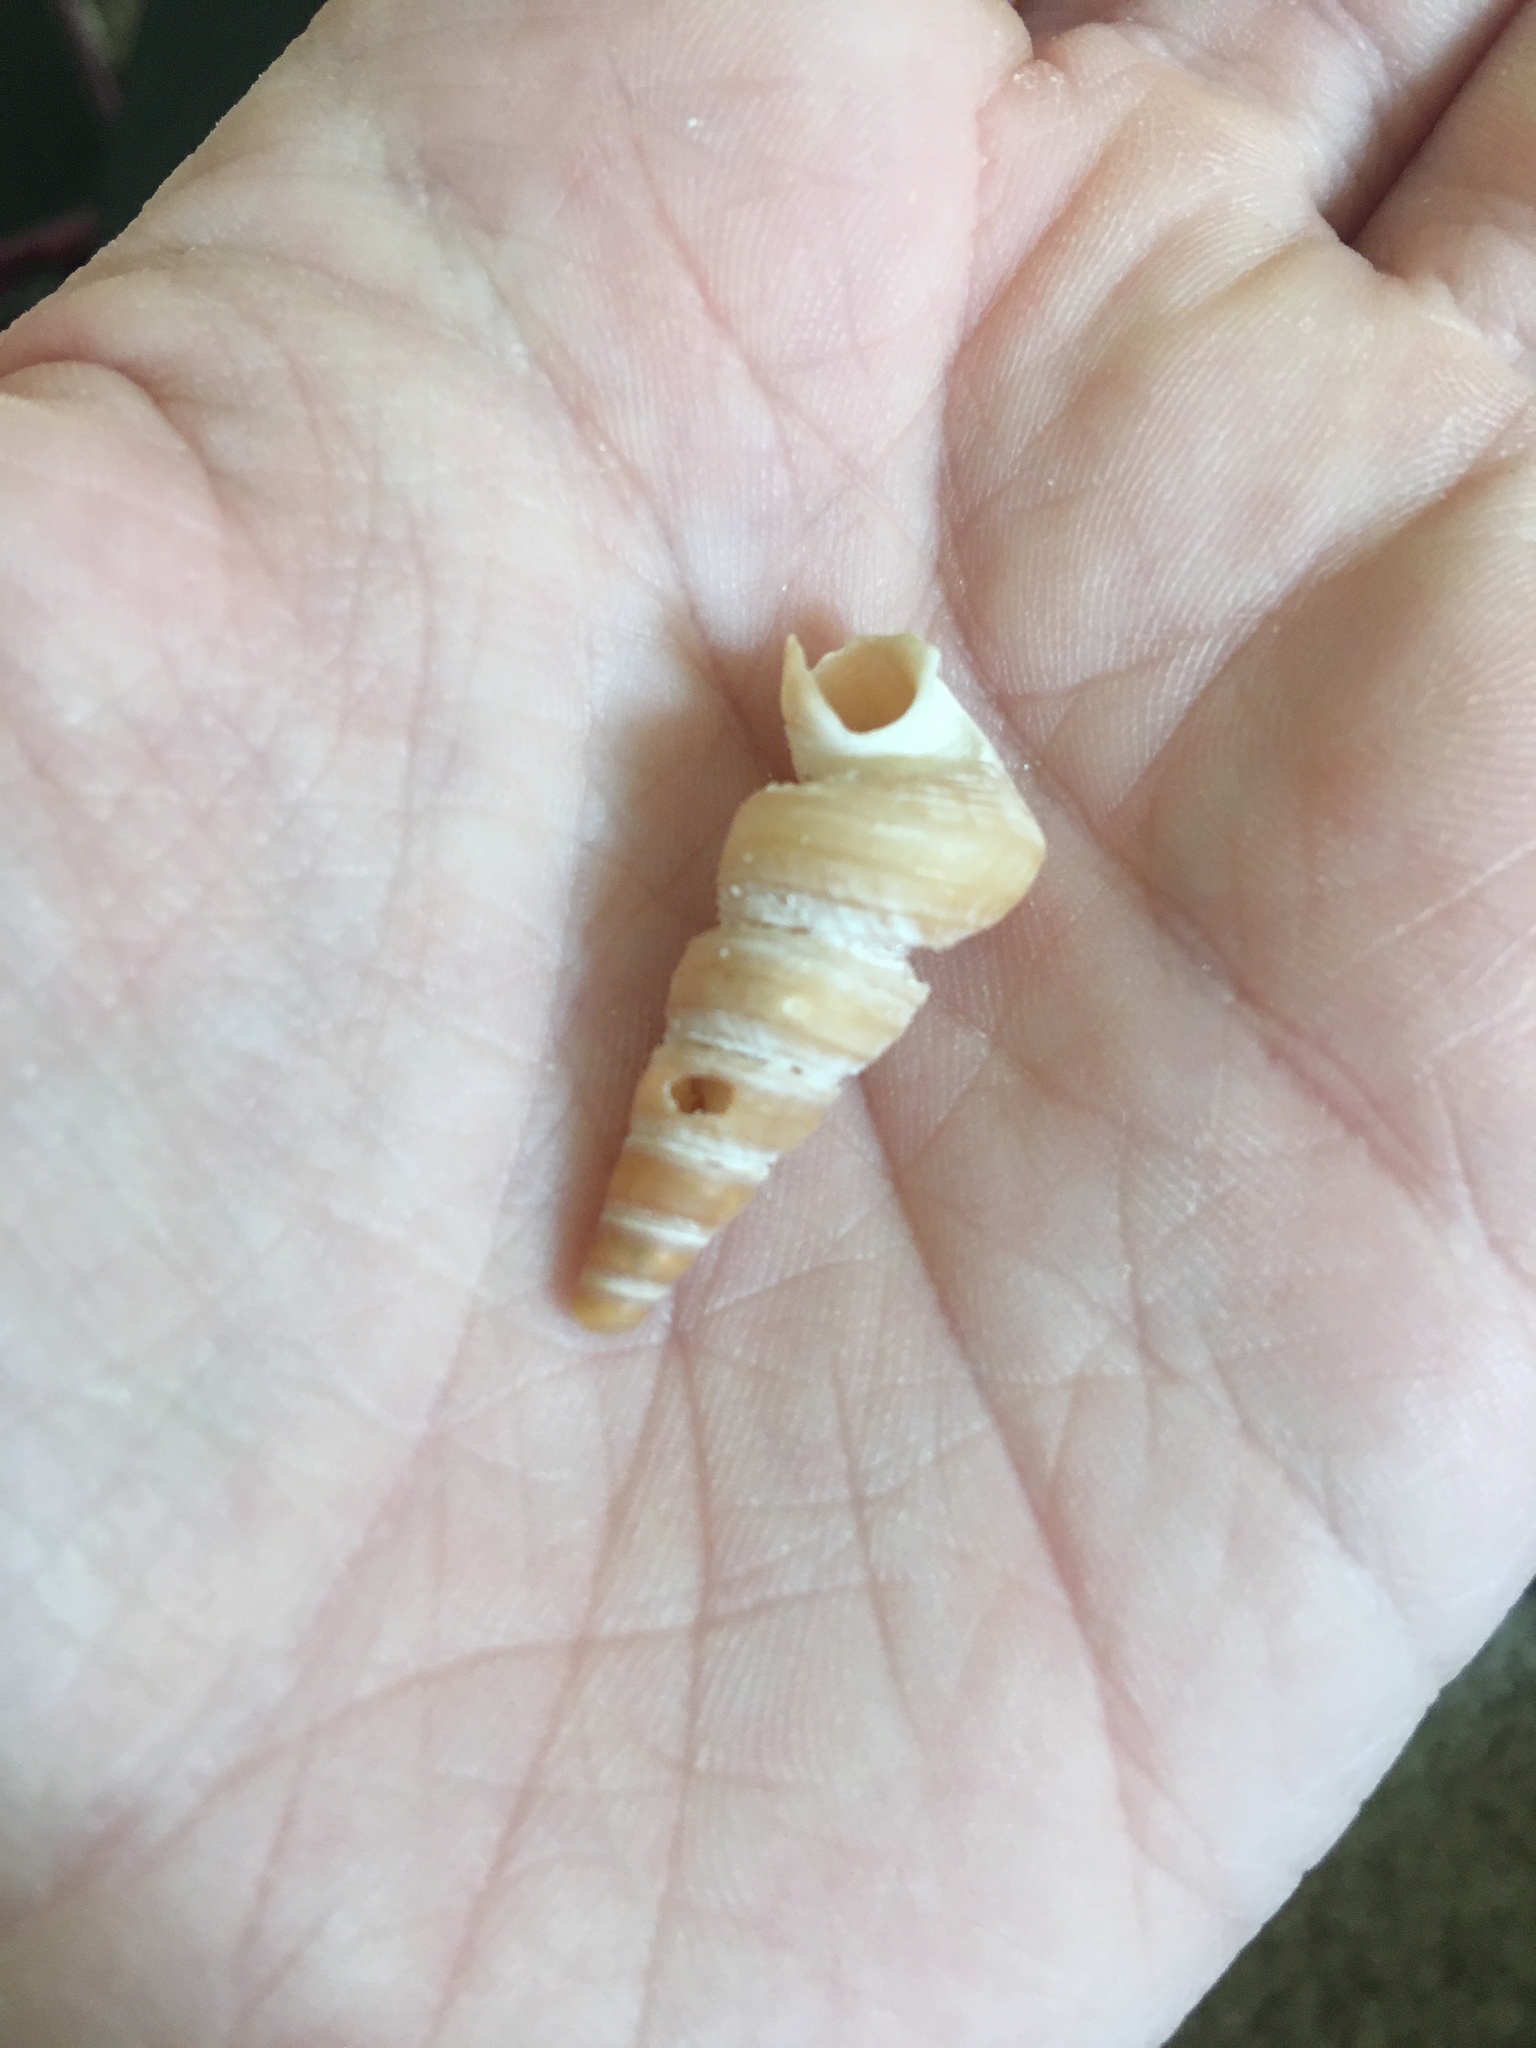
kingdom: Animalia
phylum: Mollusca
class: Gastropoda
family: Turritellidae
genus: Vermicularia
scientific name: Vermicularia fargoi
